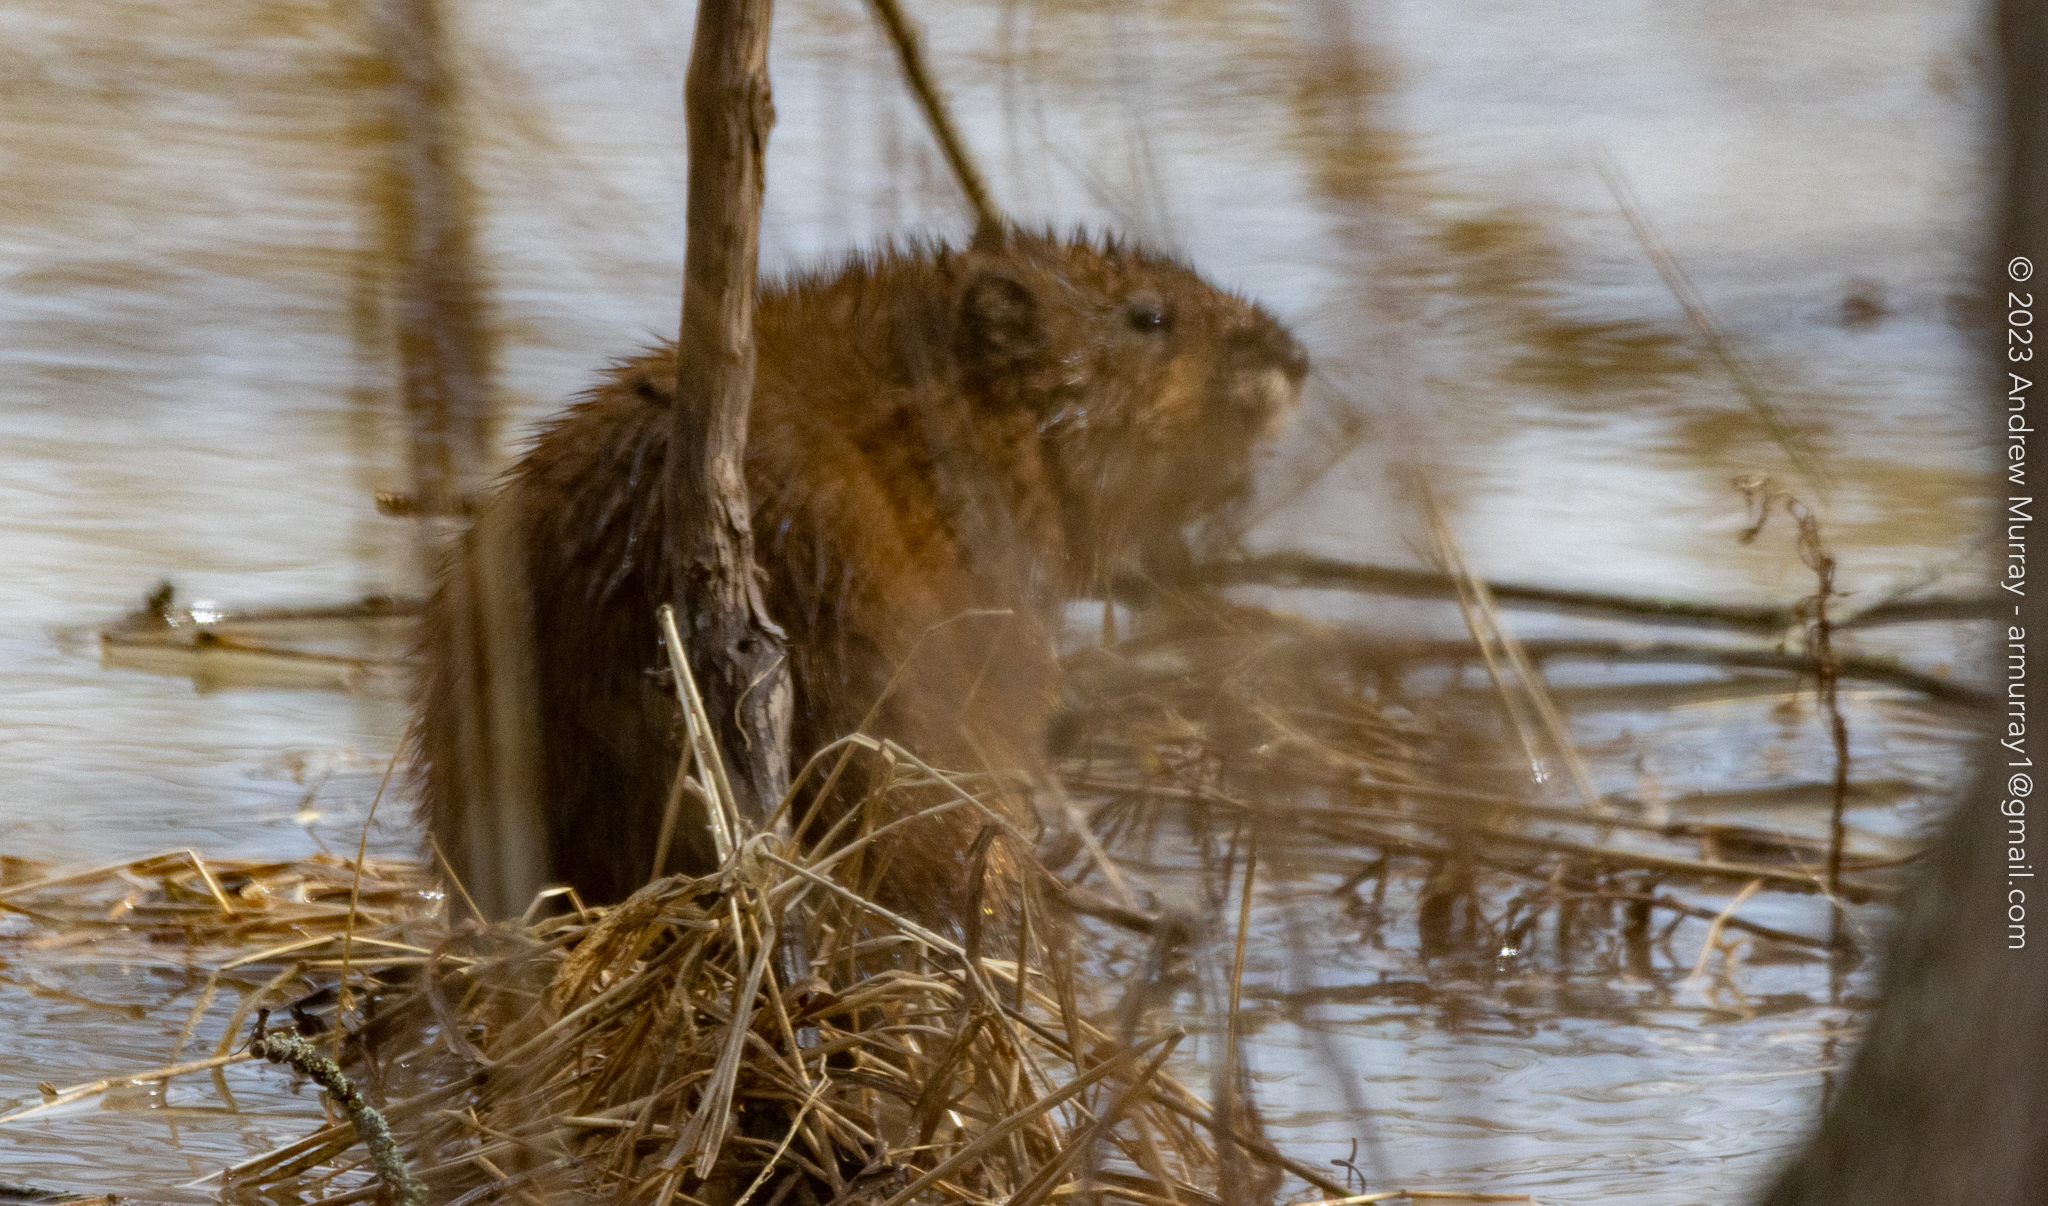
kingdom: Animalia
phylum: Chordata
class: Mammalia
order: Rodentia
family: Cricetidae
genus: Ondatra
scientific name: Ondatra zibethicus
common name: Muskrat
